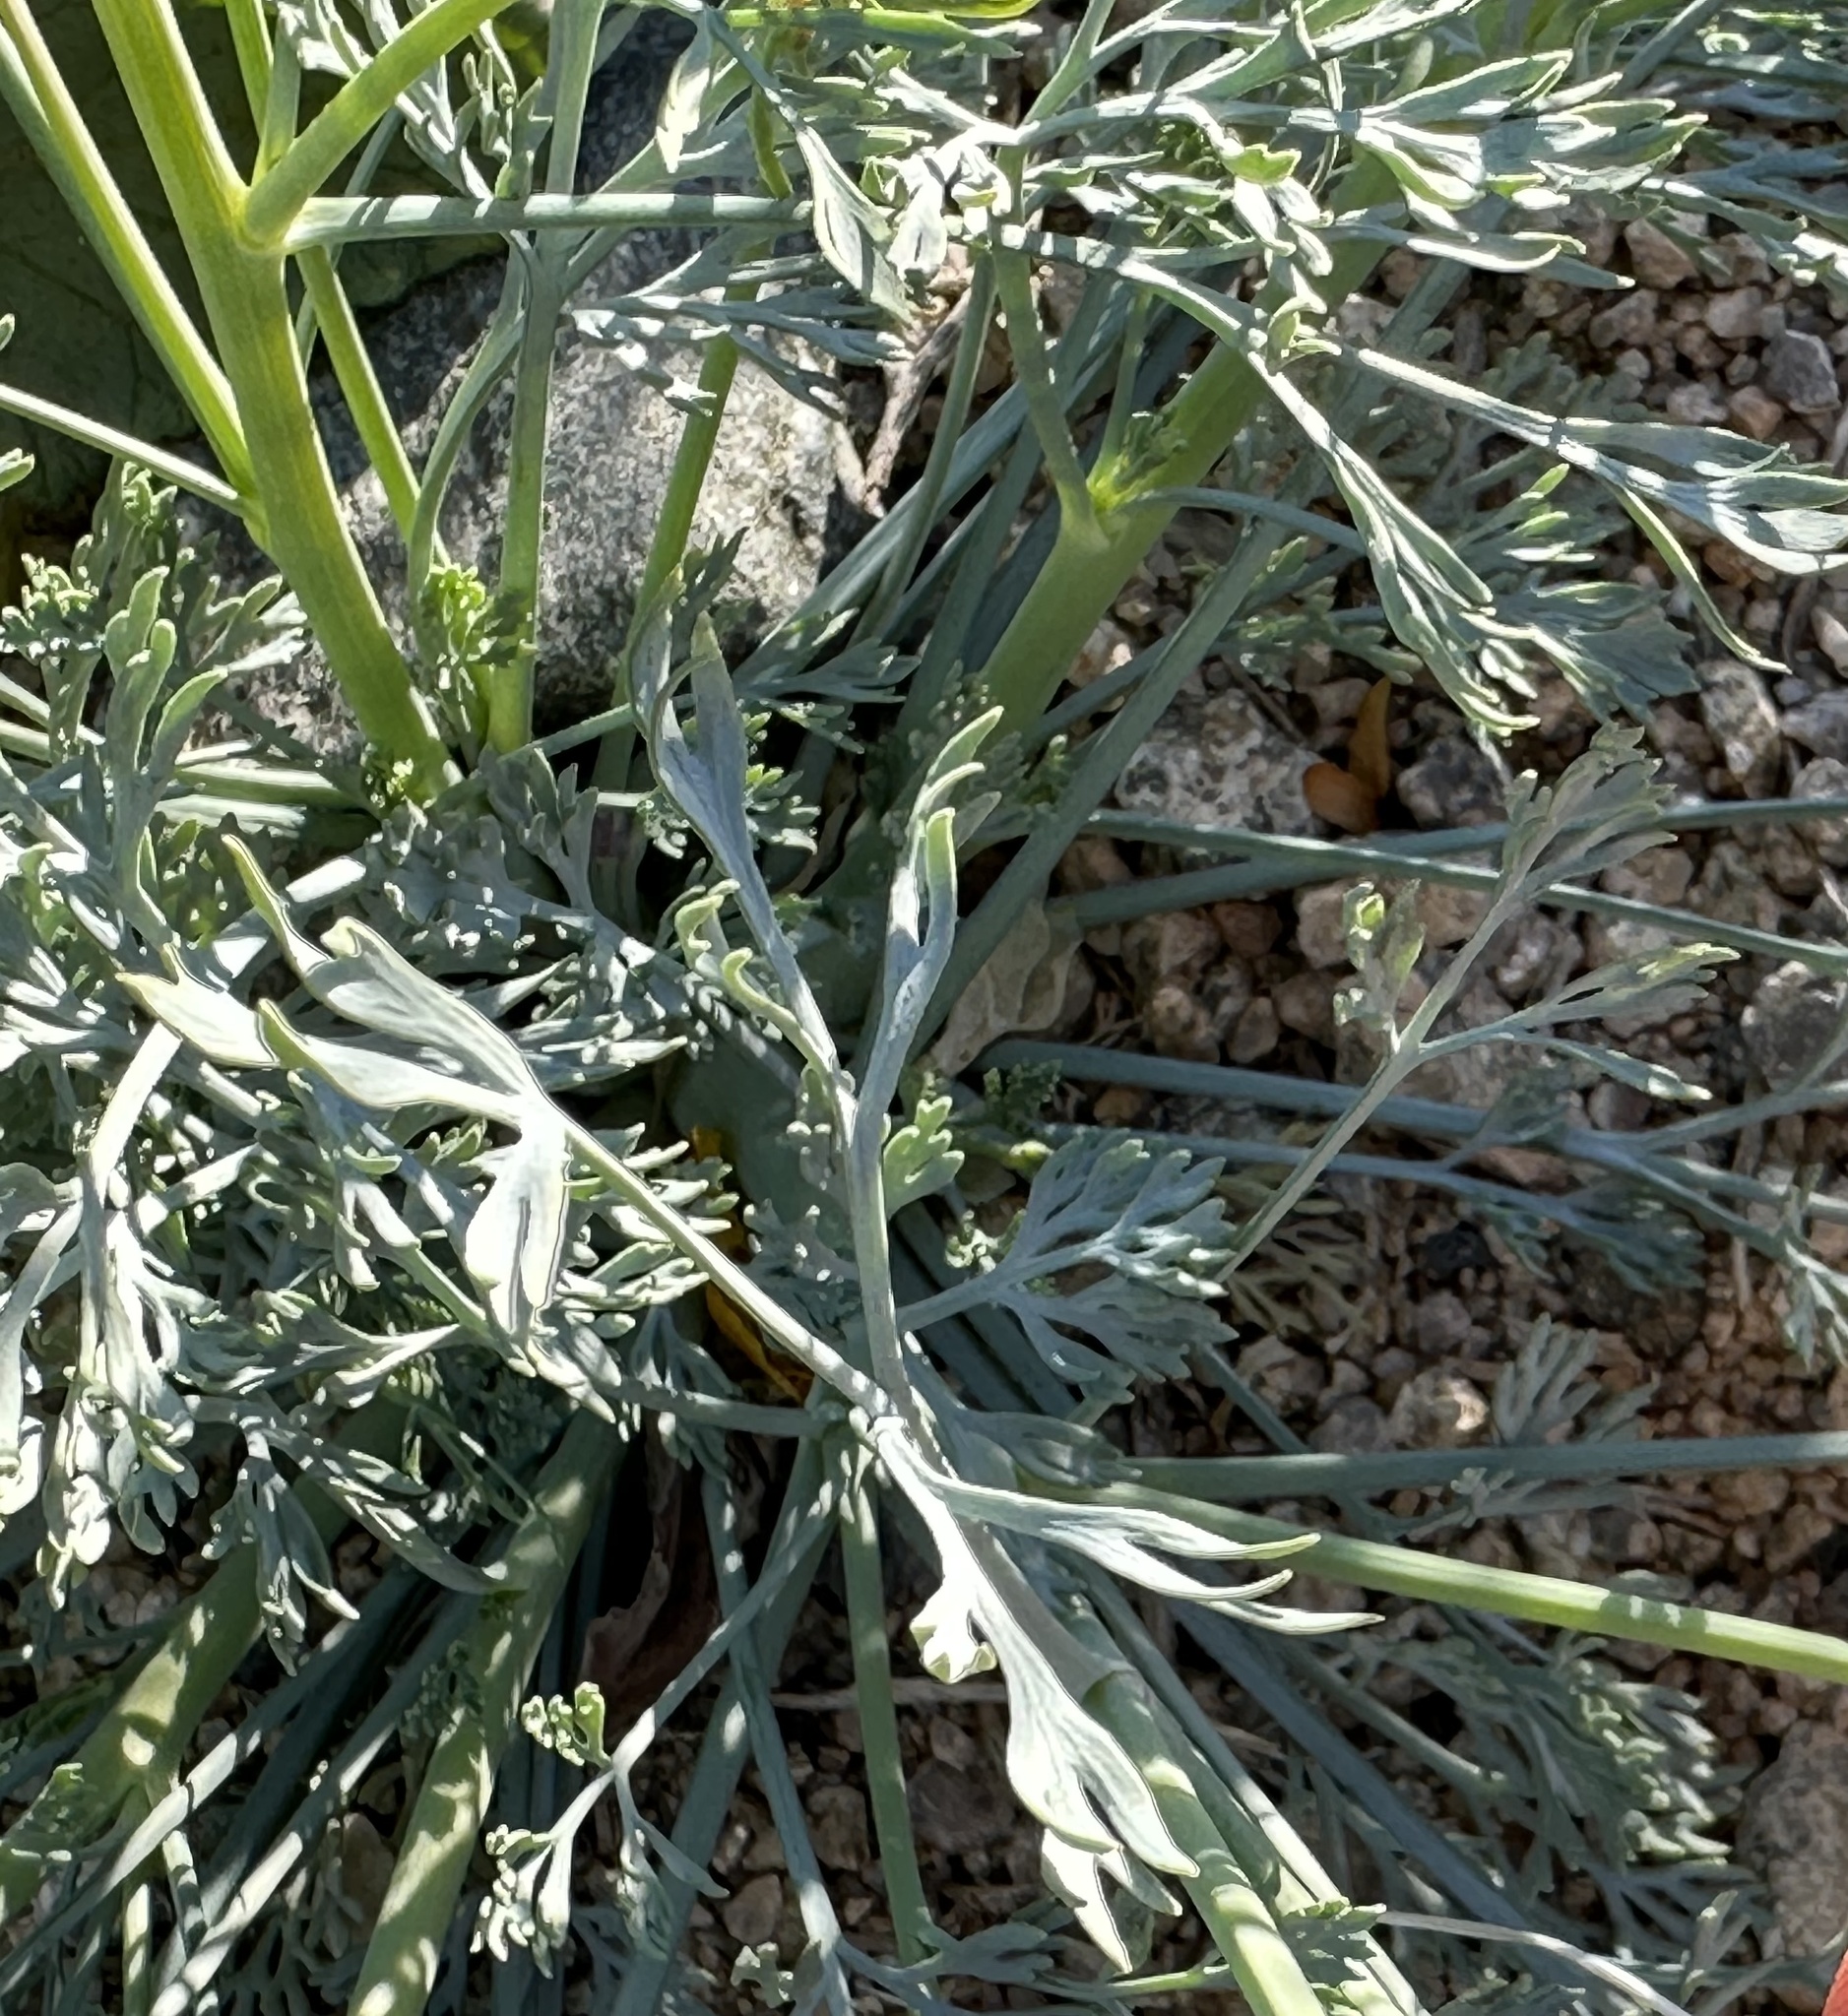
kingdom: Plantae
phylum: Tracheophyta
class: Magnoliopsida
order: Ranunculales
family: Papaveraceae
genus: Eschscholzia
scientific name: Eschscholzia papastillii
